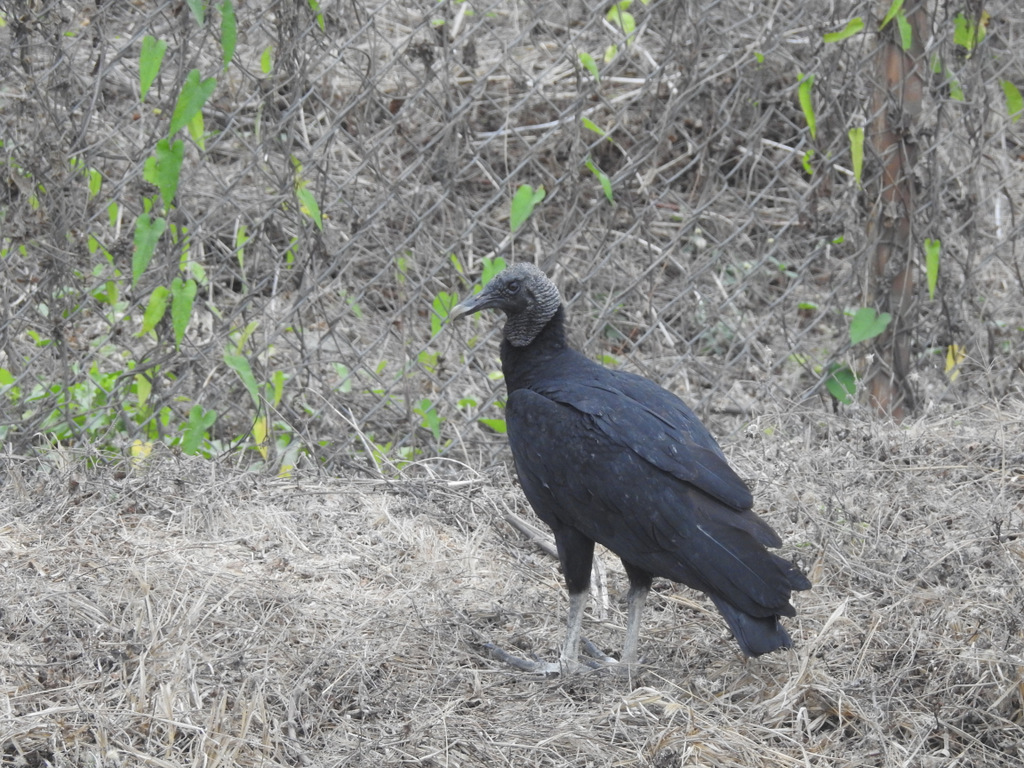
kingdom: Animalia
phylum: Chordata
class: Aves
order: Accipitriformes
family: Cathartidae
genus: Coragyps
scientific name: Coragyps atratus
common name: Black vulture
